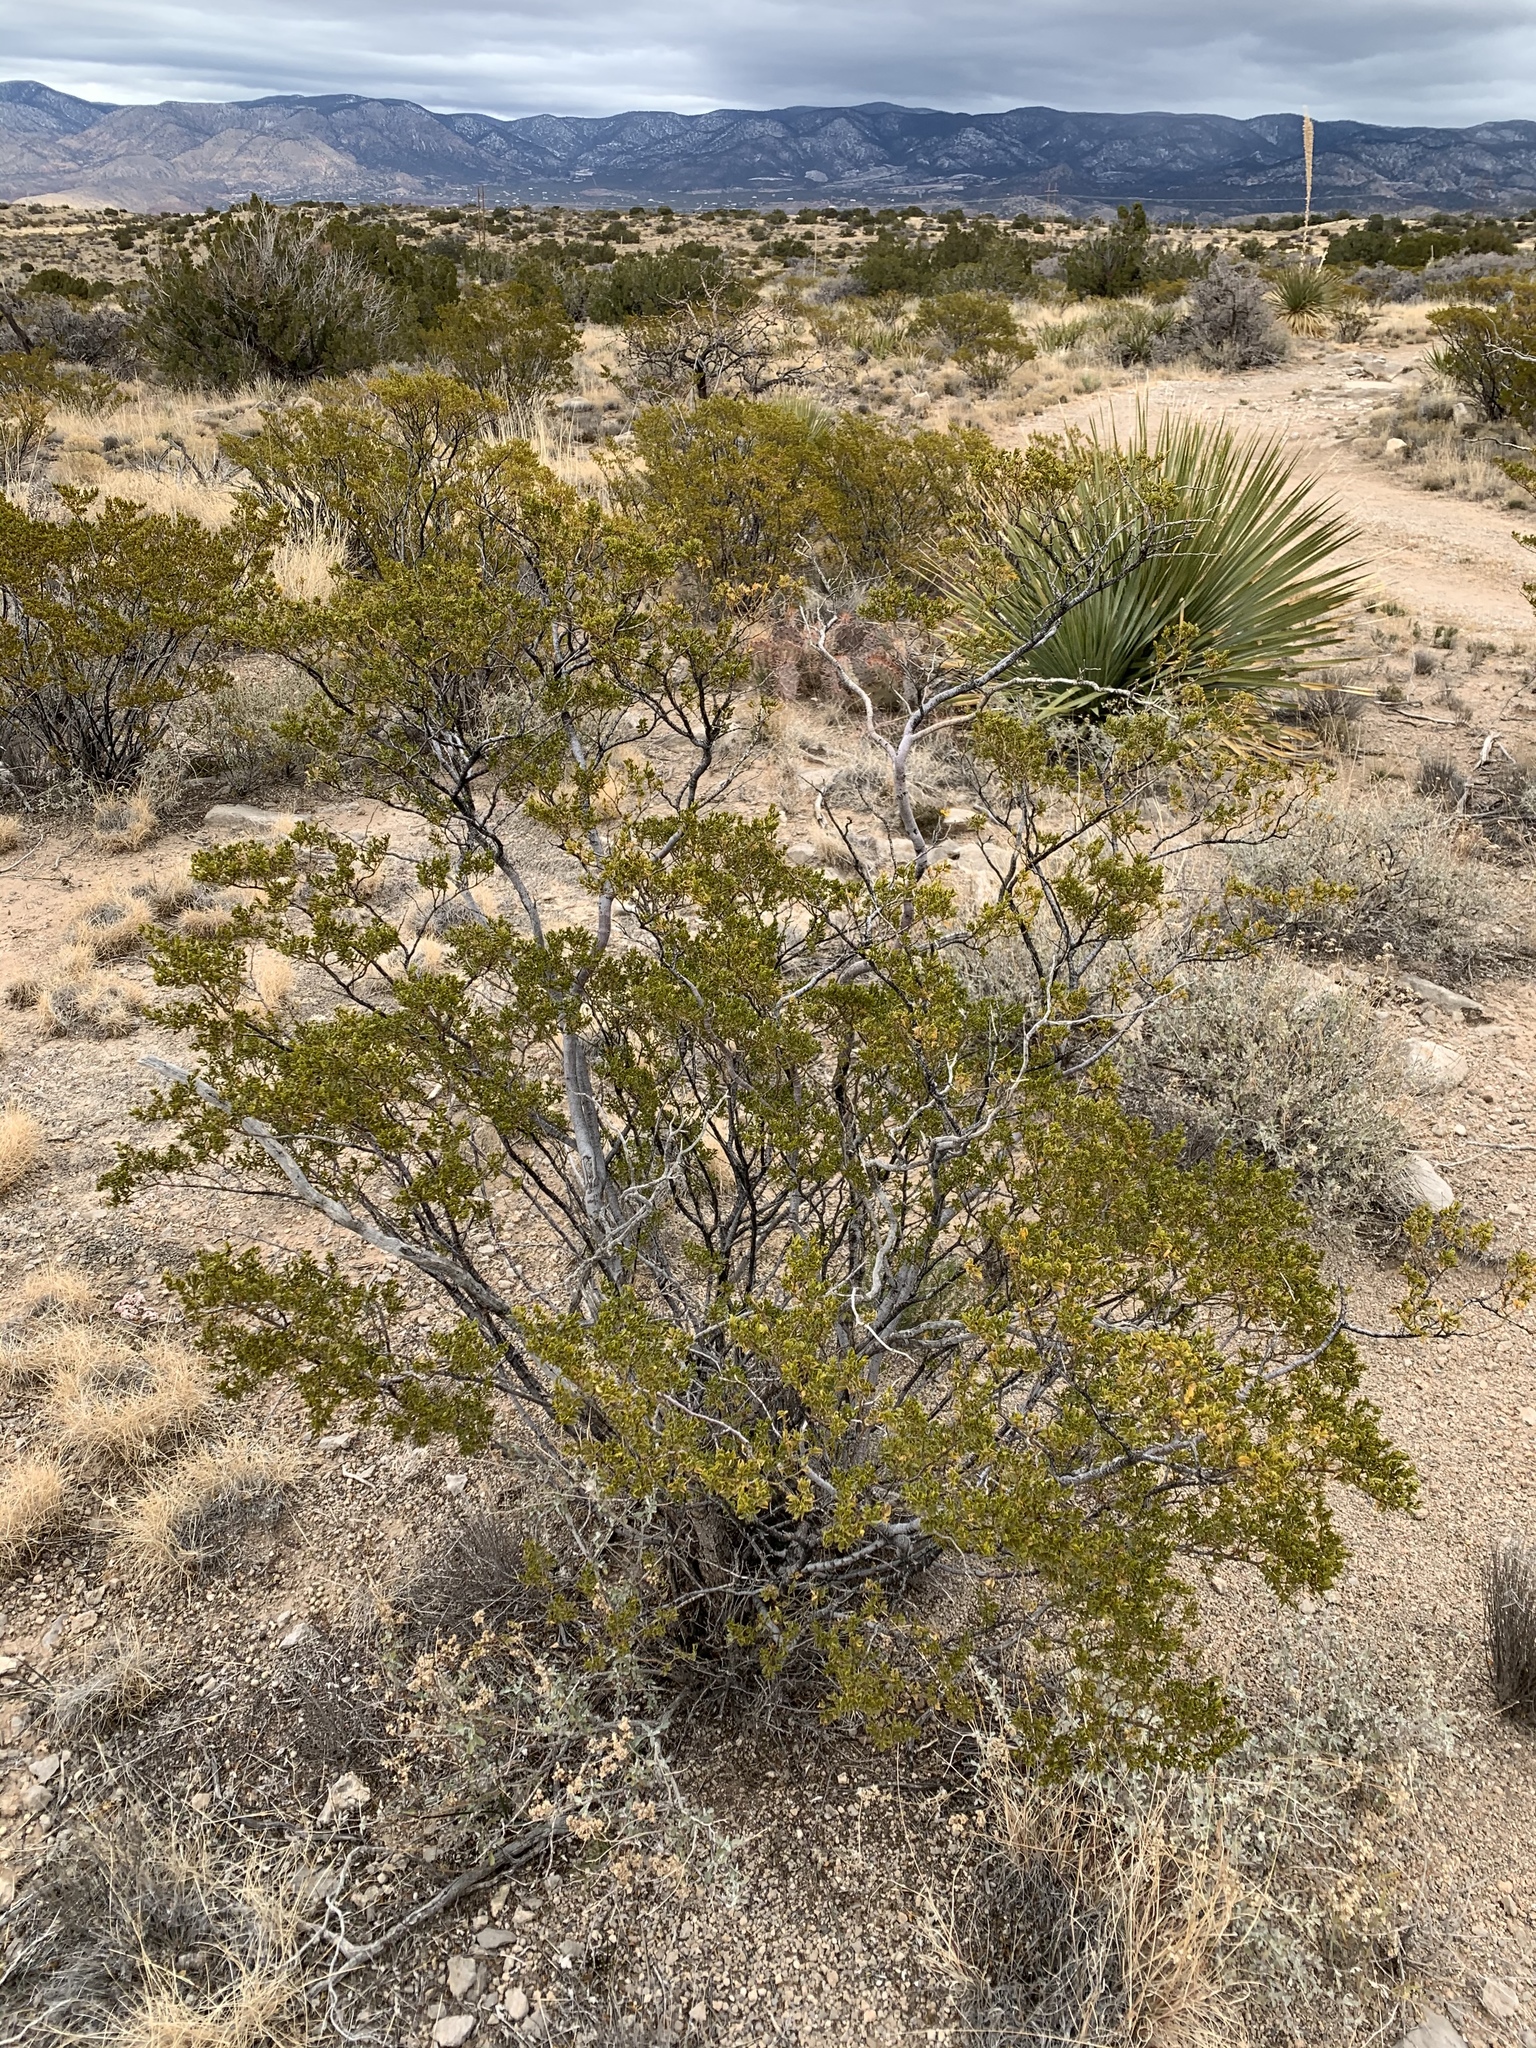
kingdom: Plantae
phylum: Tracheophyta
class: Magnoliopsida
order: Zygophyllales
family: Zygophyllaceae
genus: Larrea
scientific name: Larrea tridentata
